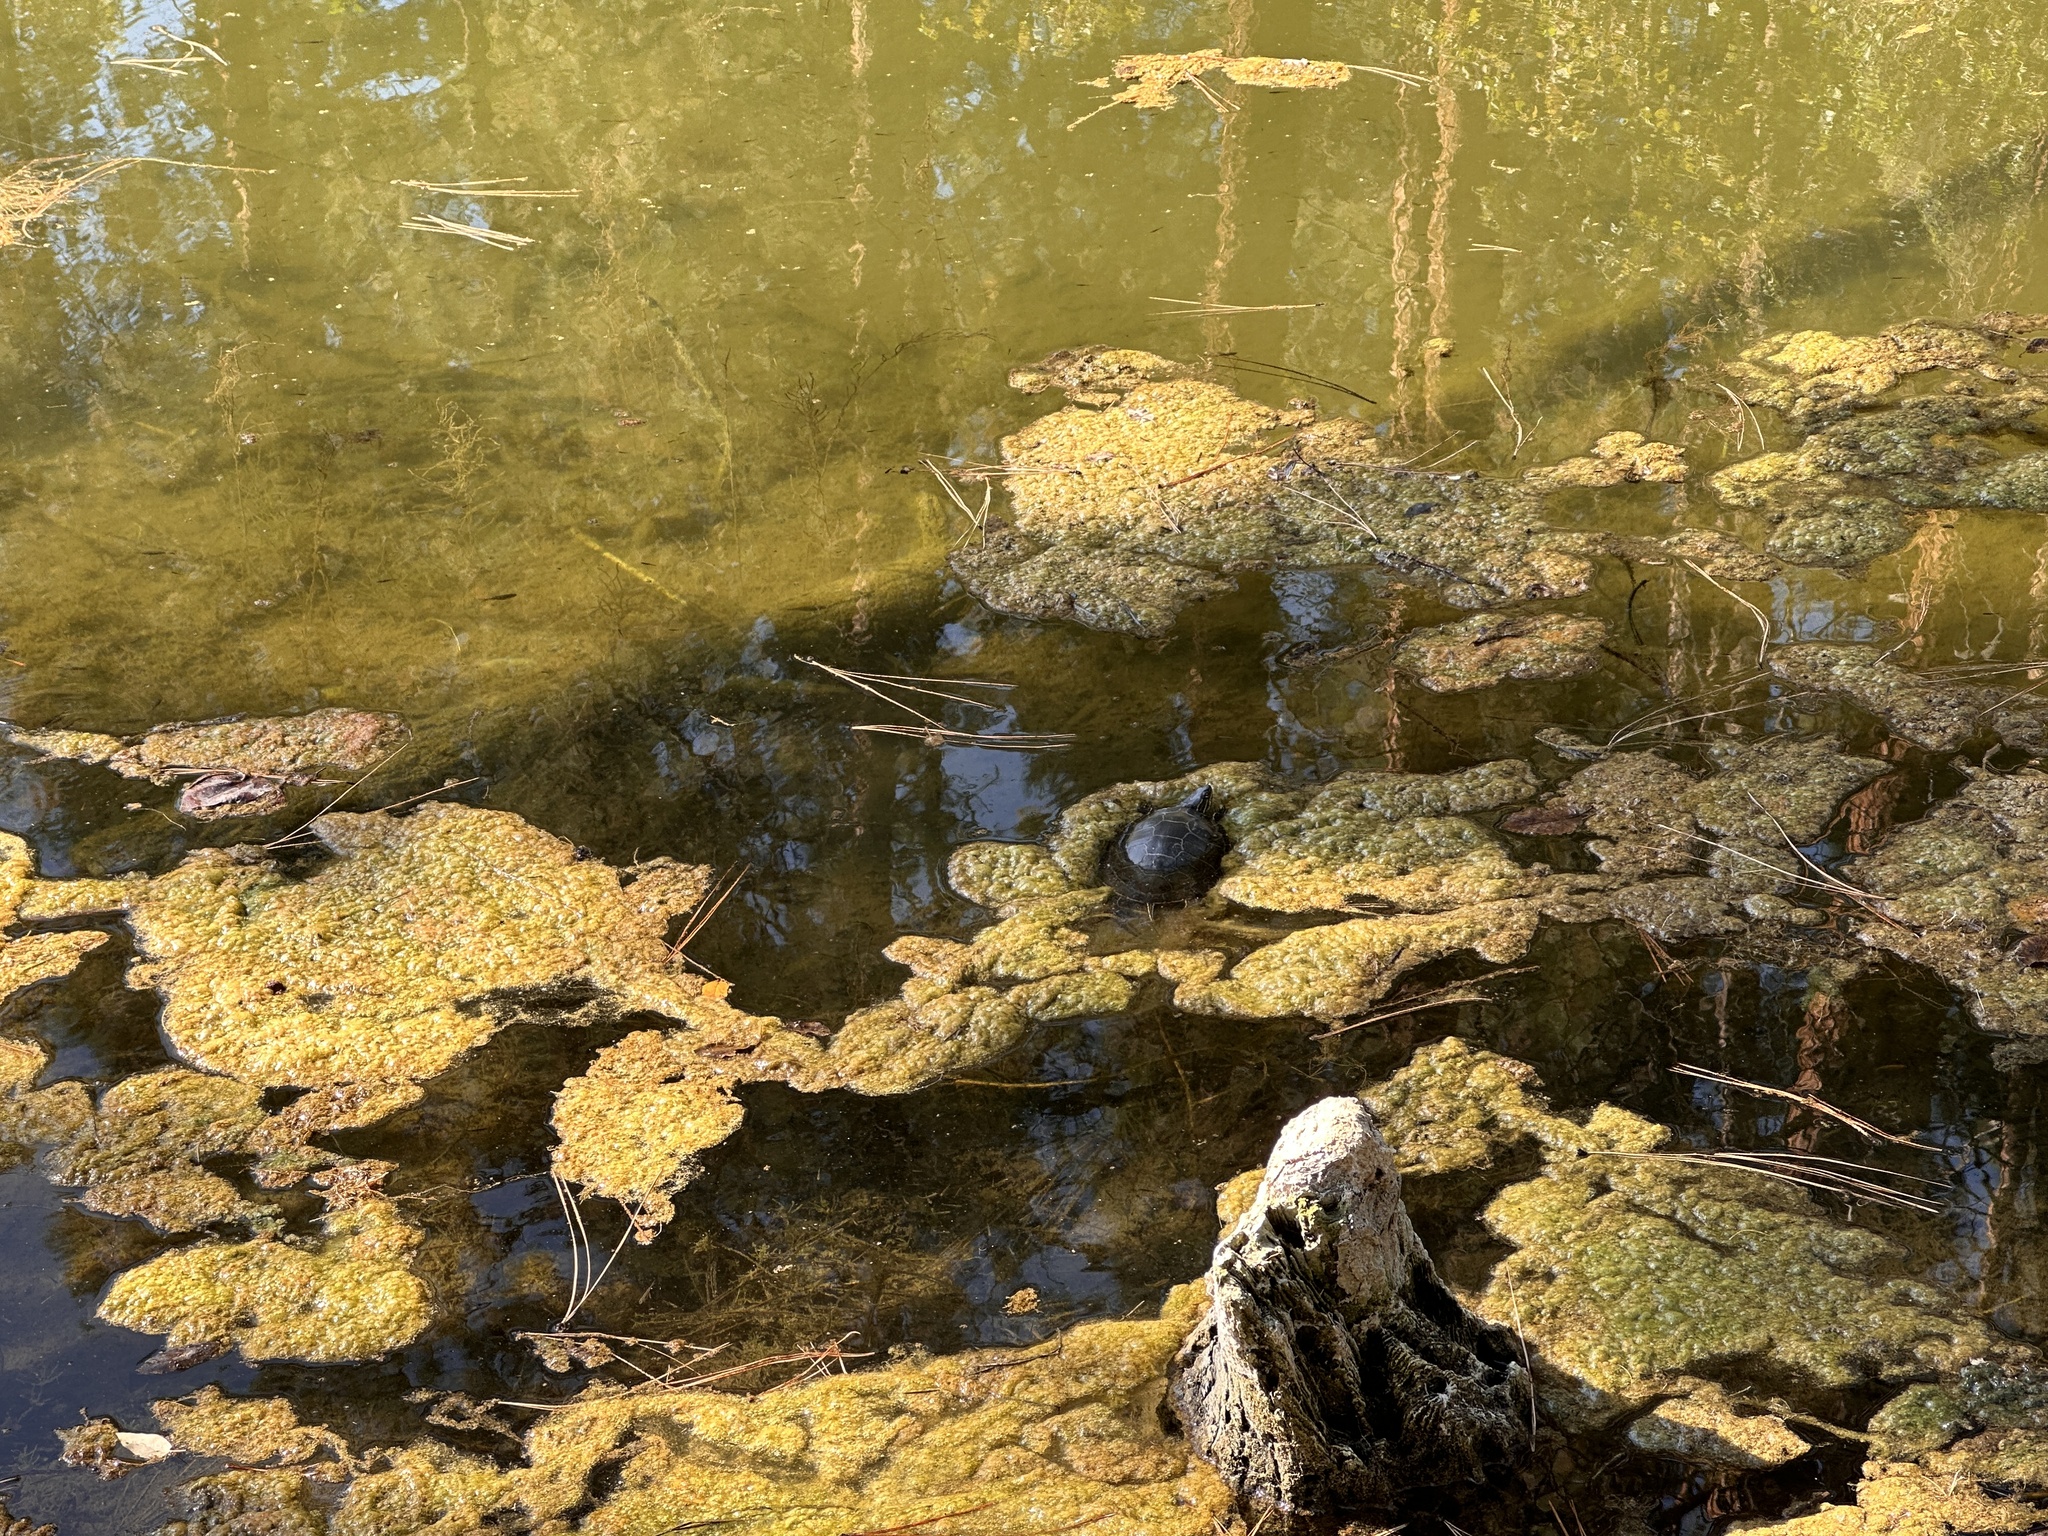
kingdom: Animalia
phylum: Chordata
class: Testudines
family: Emydidae
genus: Chrysemys
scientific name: Chrysemys picta
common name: Painted turtle
